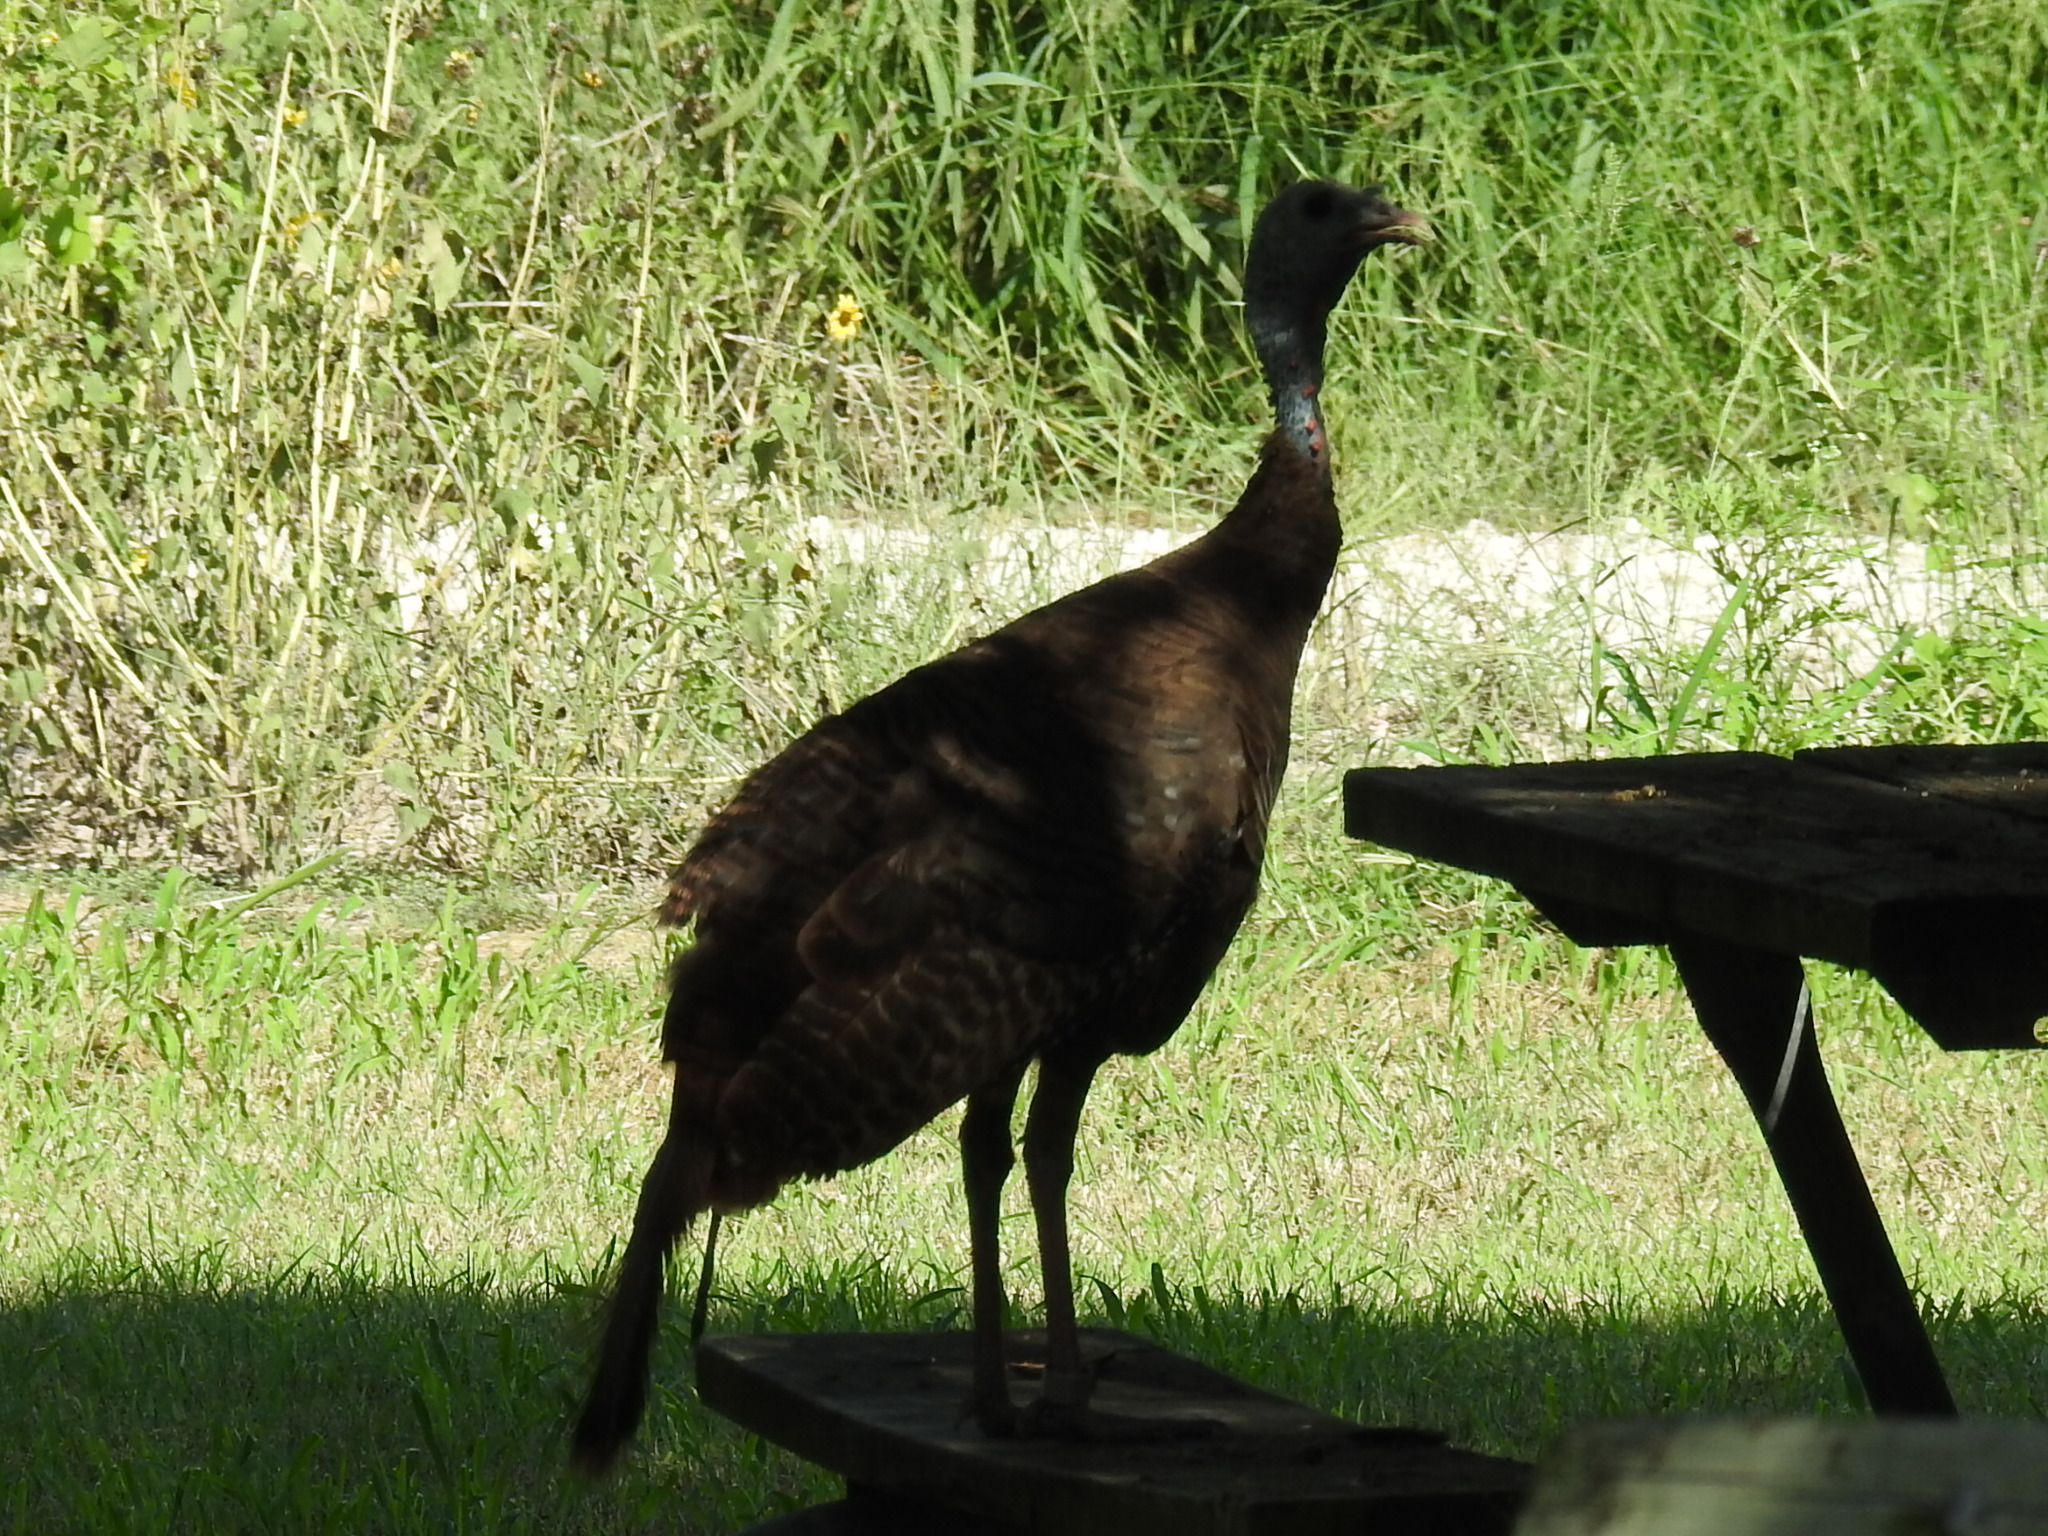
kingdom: Animalia
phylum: Chordata
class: Aves
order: Galliformes
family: Phasianidae
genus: Meleagris
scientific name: Meleagris gallopavo
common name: Wild turkey
